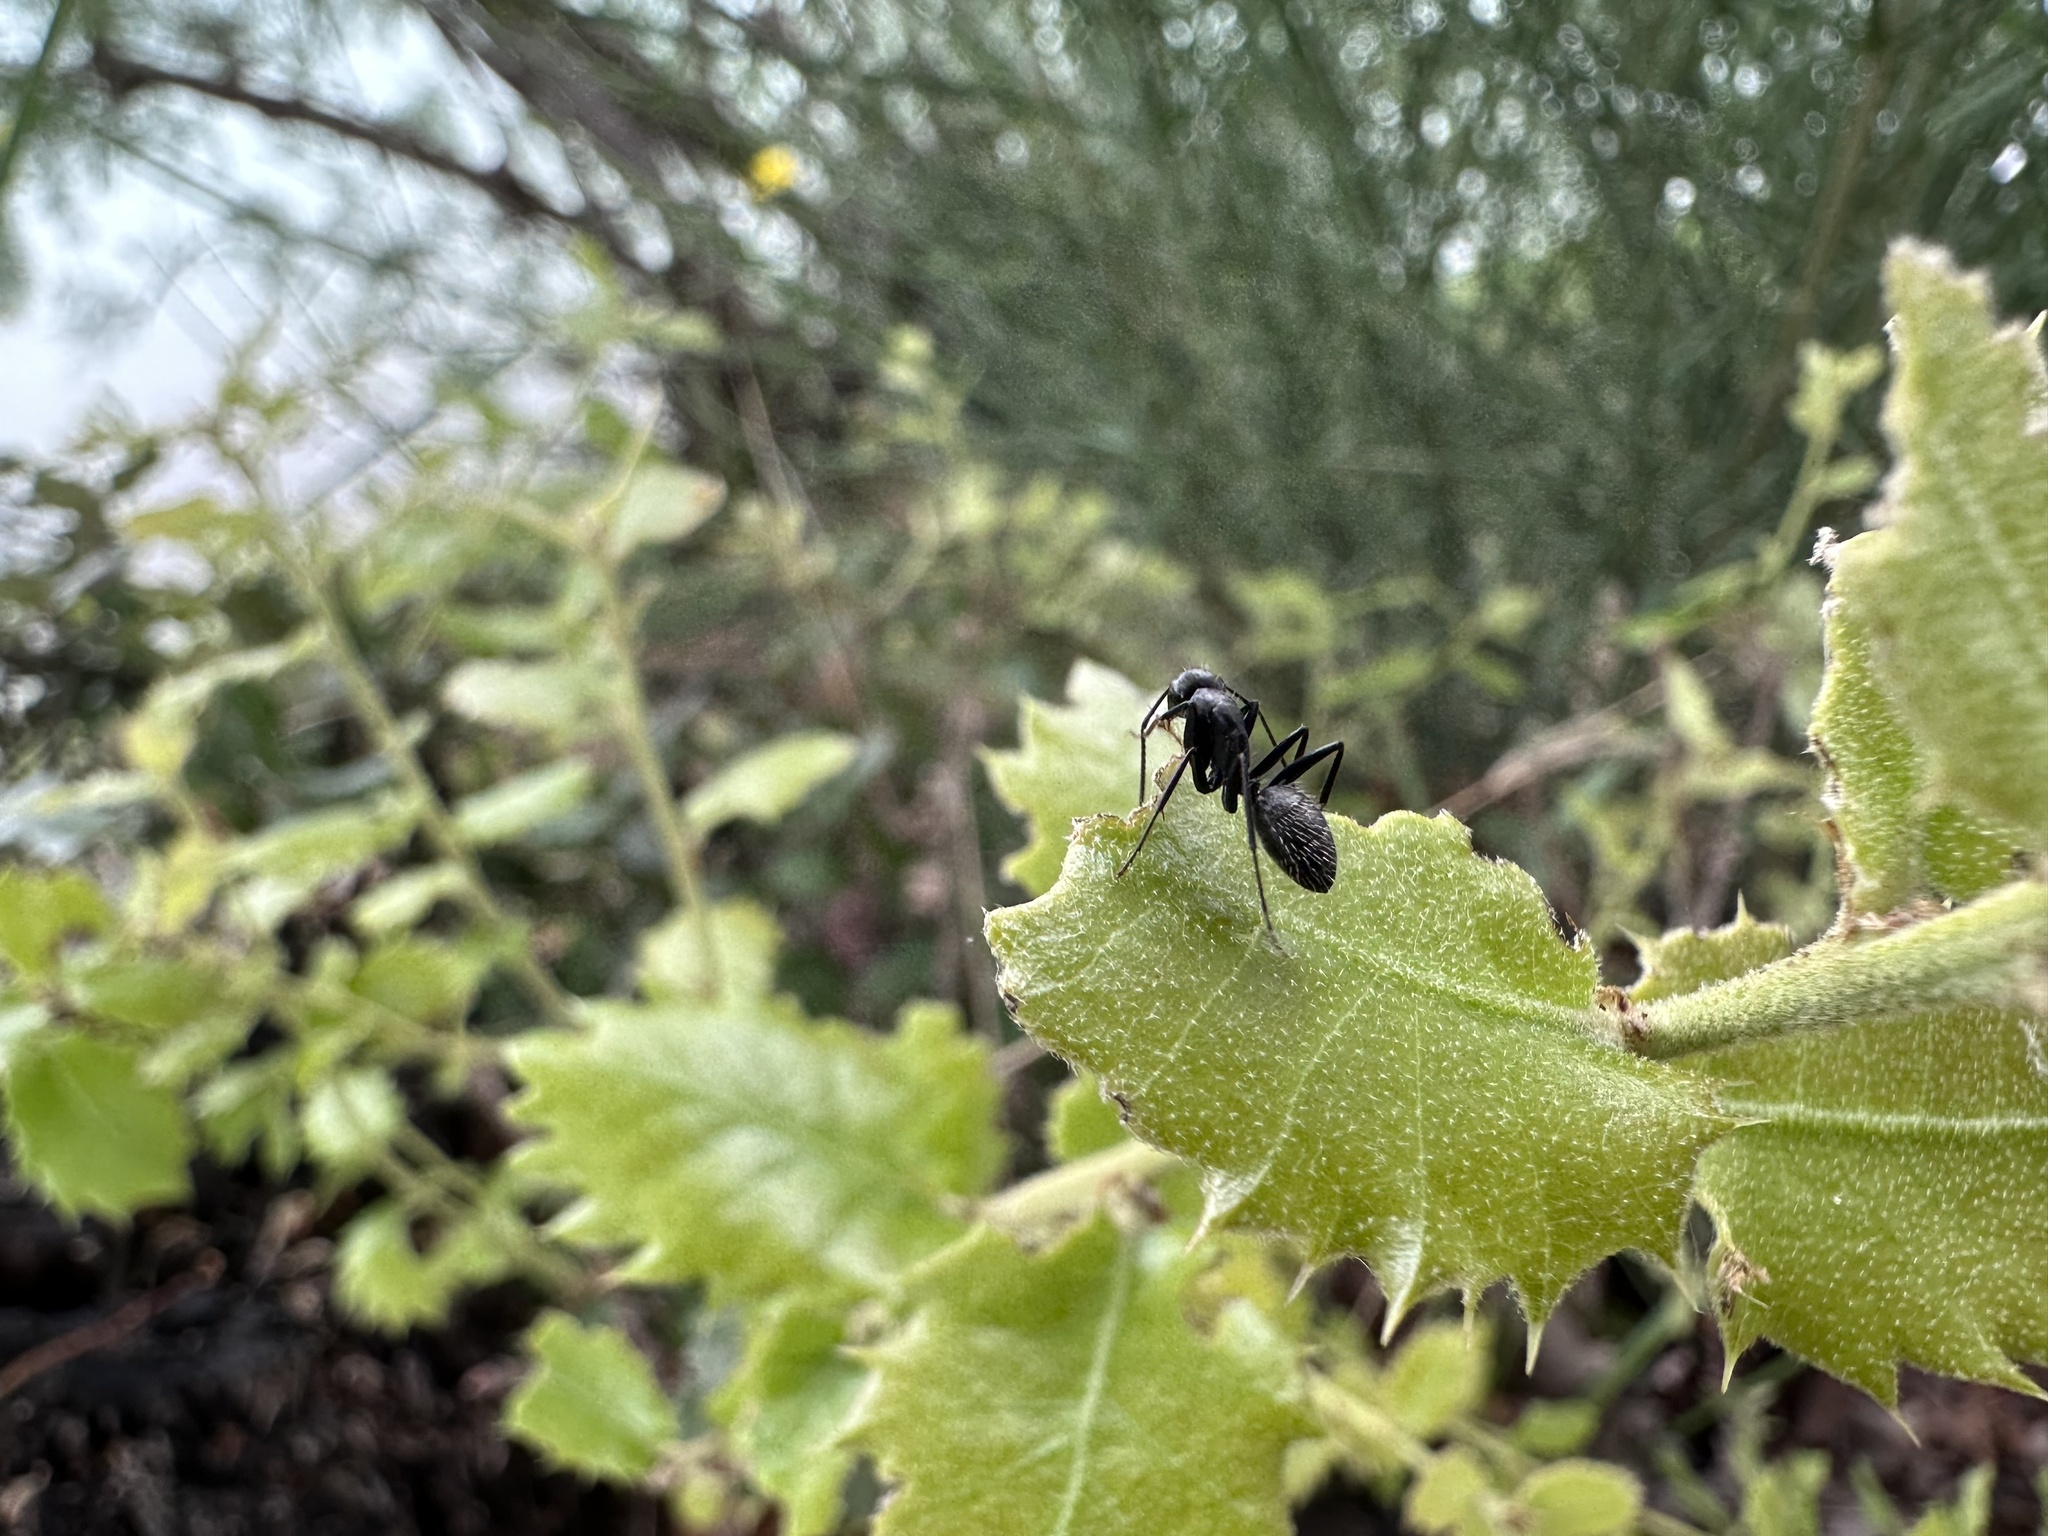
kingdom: Animalia
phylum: Arthropoda
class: Insecta
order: Hymenoptera
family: Formicidae
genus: Camponotus
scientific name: Camponotus vagus
